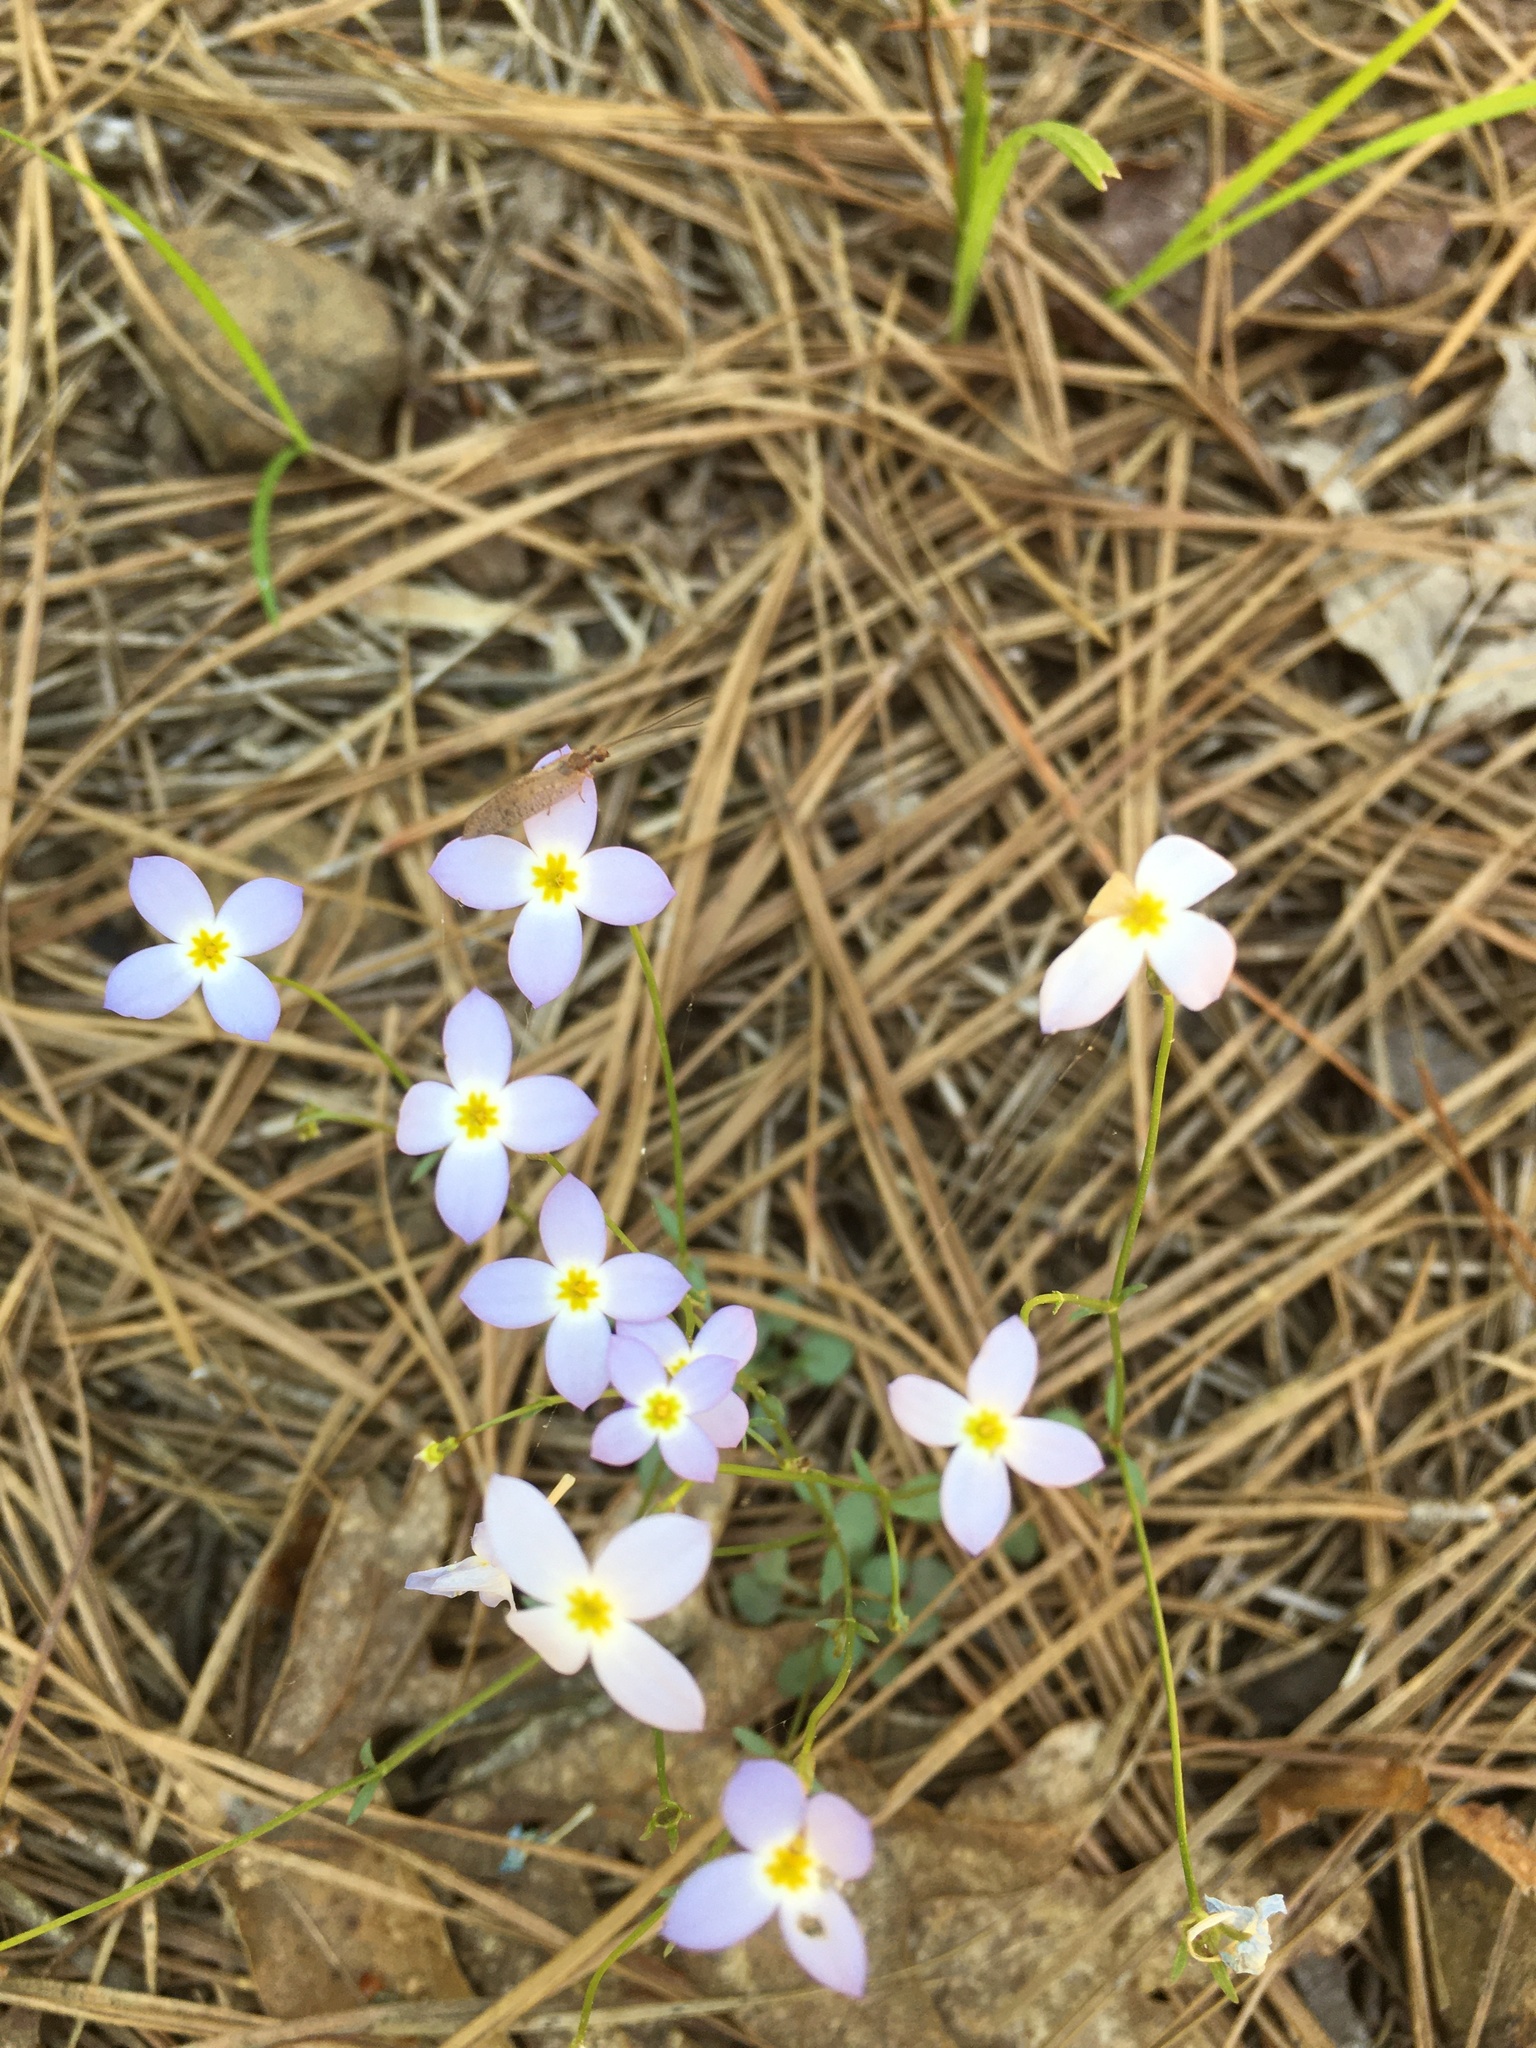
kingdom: Plantae
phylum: Tracheophyta
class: Magnoliopsida
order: Gentianales
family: Rubiaceae
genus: Houstonia
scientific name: Houstonia caerulea
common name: Bluets
